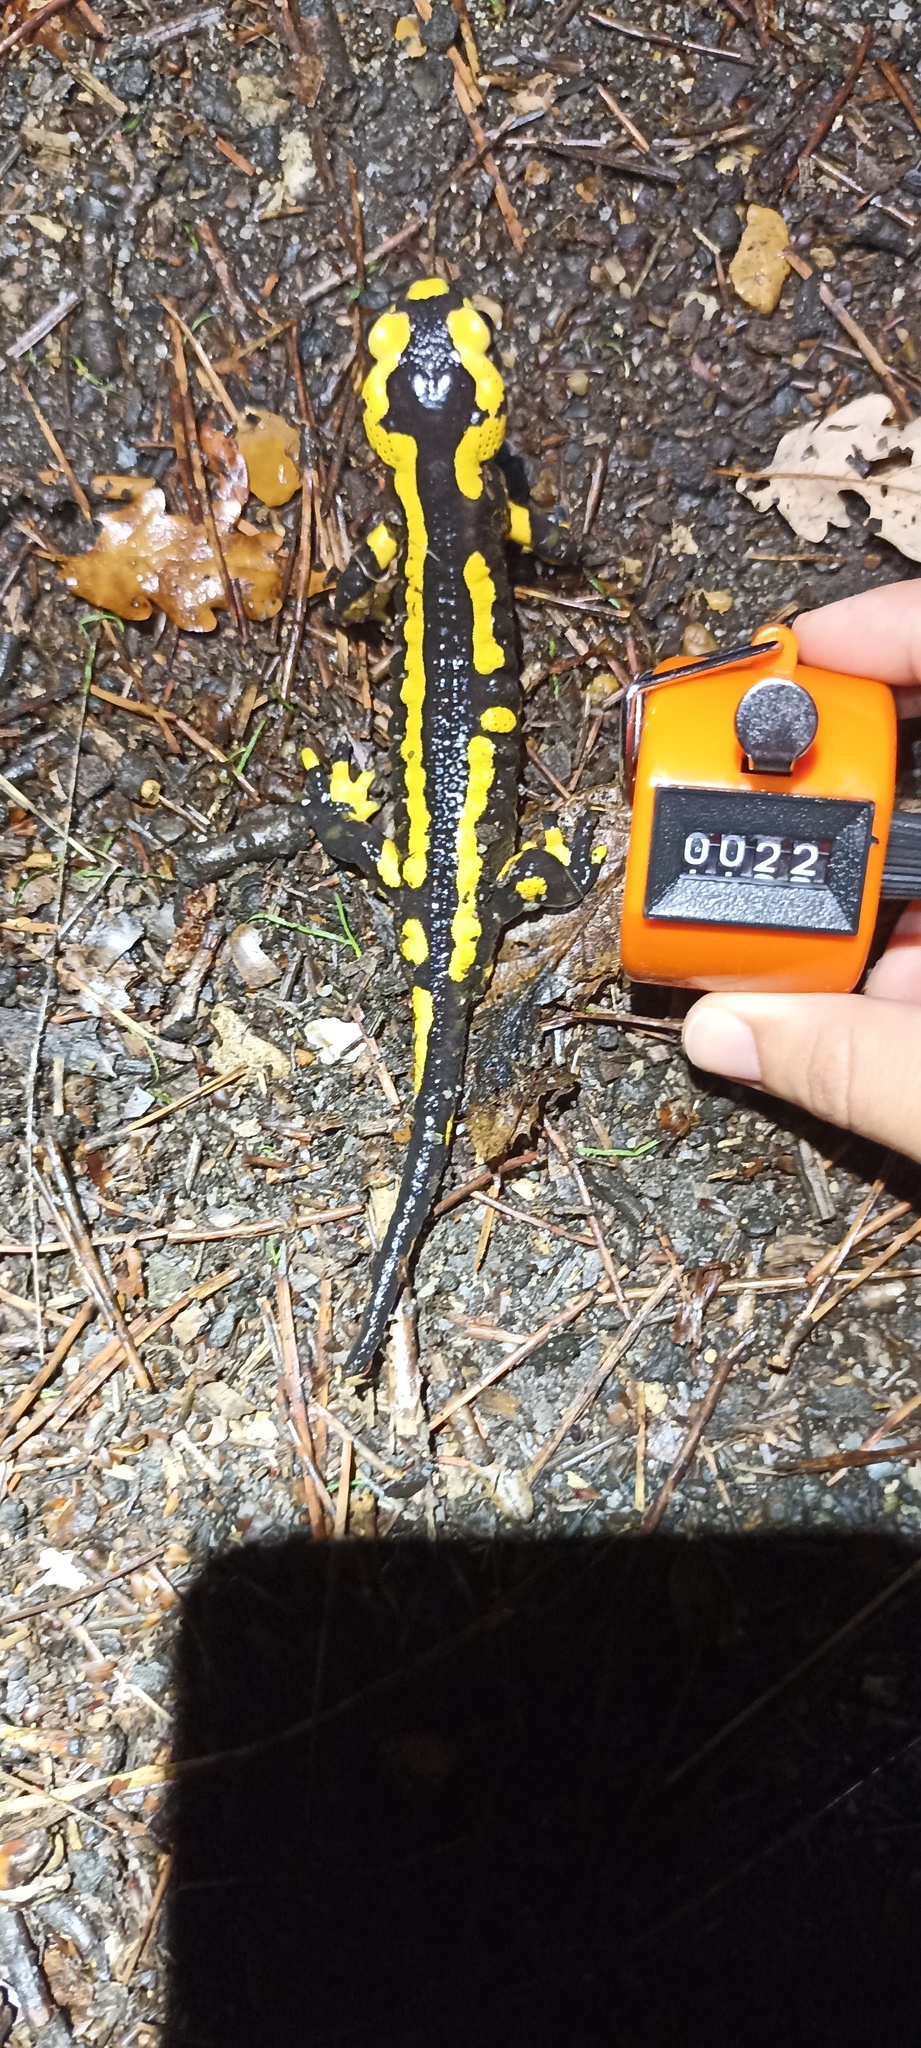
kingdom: Animalia
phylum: Chordata
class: Amphibia
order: Caudata
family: Salamandridae
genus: Salamandra
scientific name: Salamandra salamandra
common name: Fire salamander
